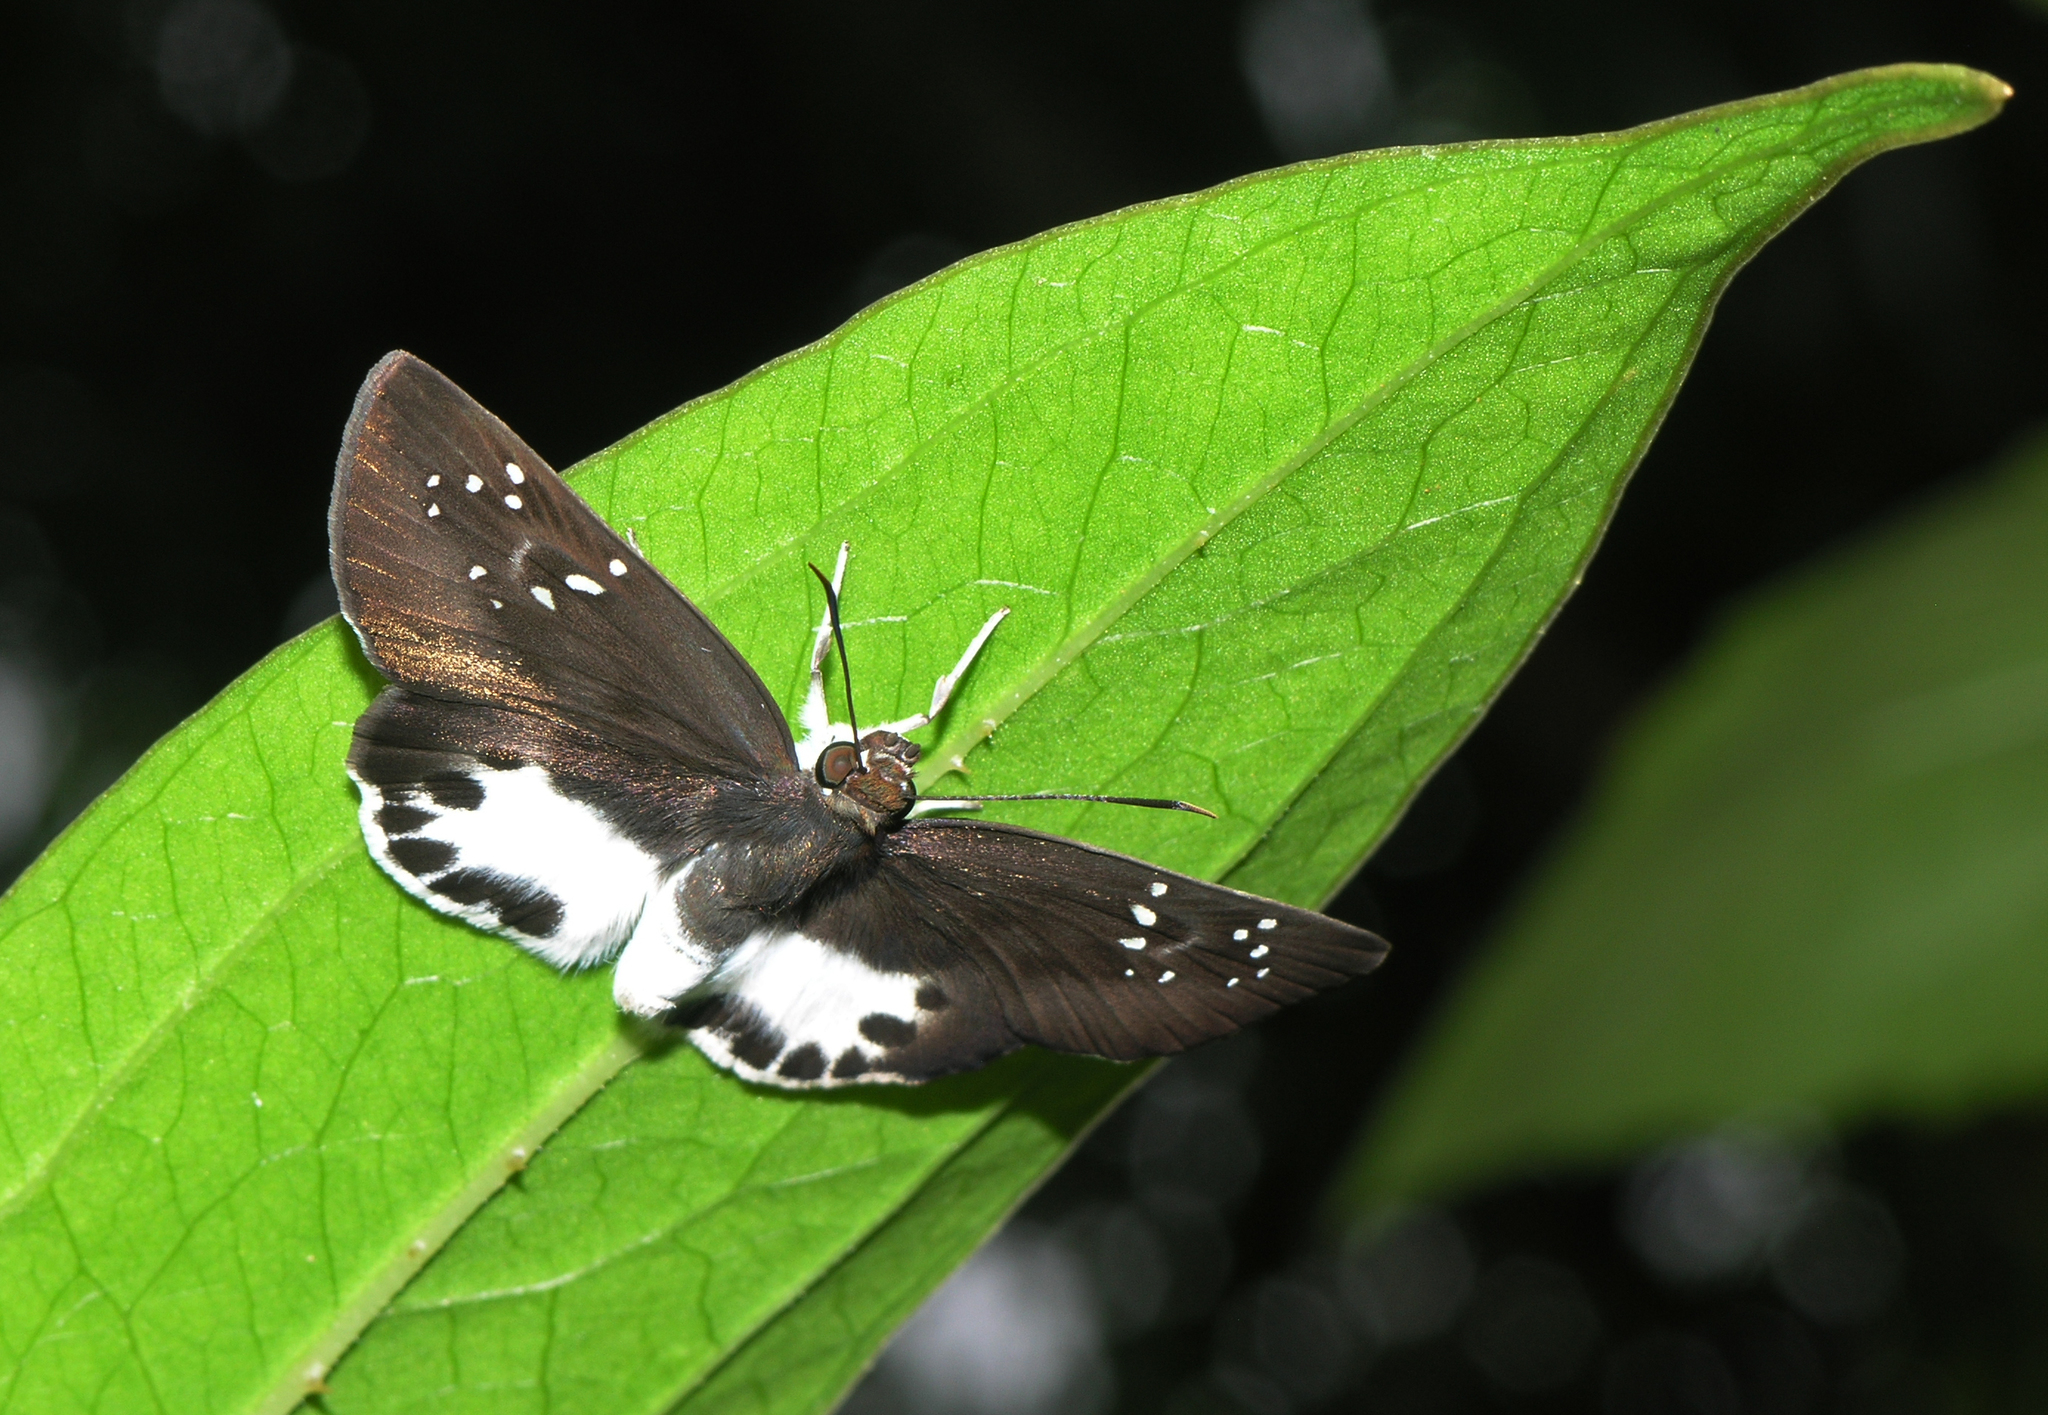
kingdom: Animalia
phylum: Arthropoda
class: Insecta
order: Lepidoptera
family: Hesperiidae
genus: Tagiades
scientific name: Tagiades litigiosa
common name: Water snow flat
